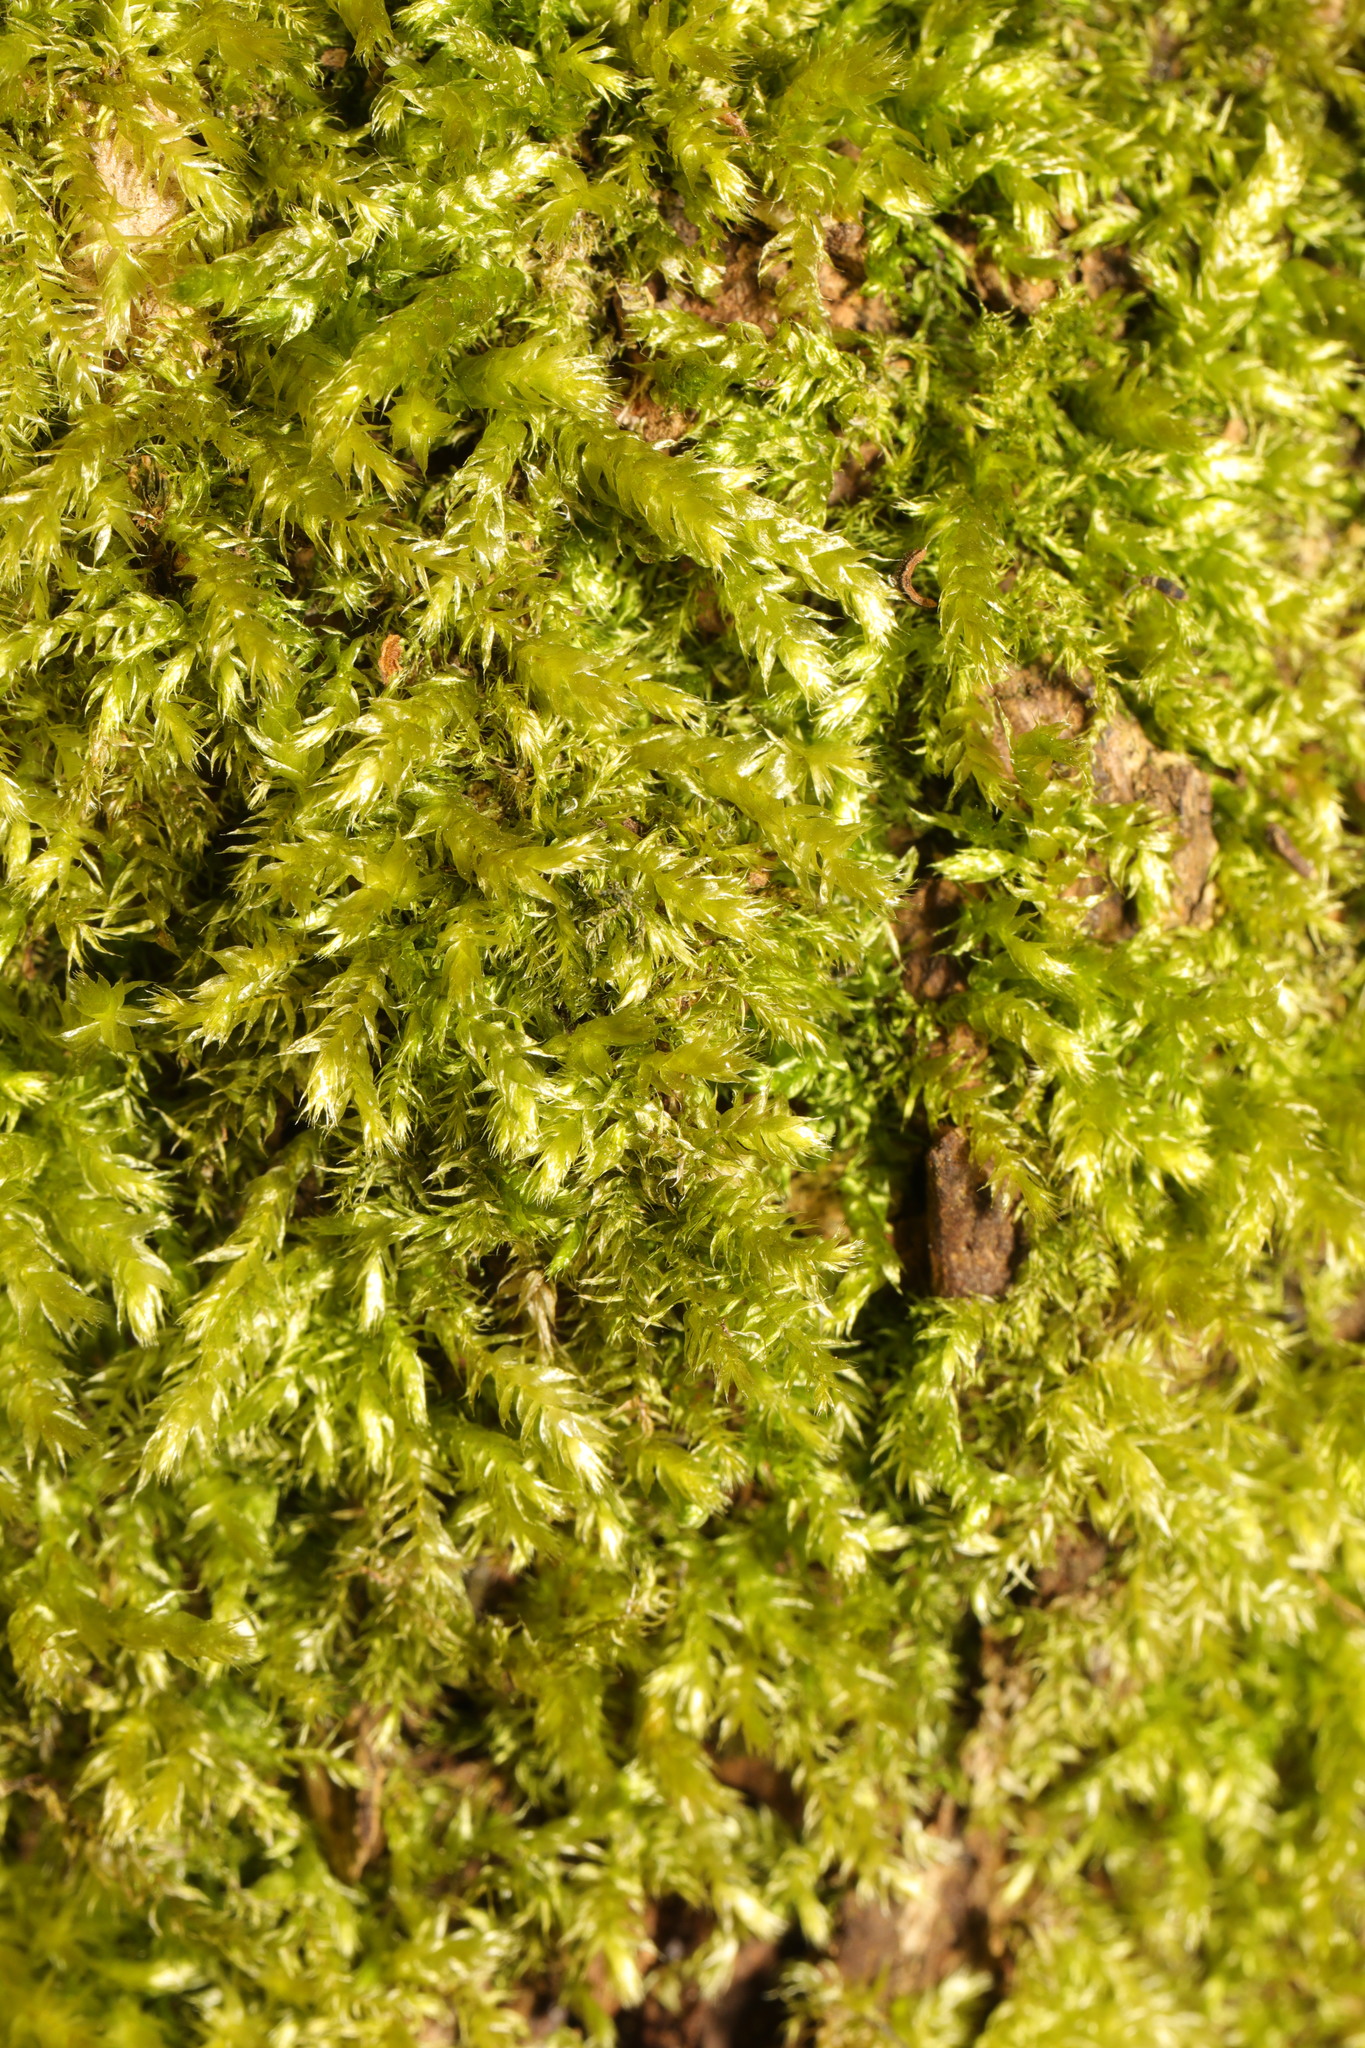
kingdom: Plantae
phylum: Bryophyta
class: Bryopsida
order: Hypnales
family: Brachytheciaceae
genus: Brachythecium
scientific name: Brachythecium rutabulum
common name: Rough-stalked feather-moss
